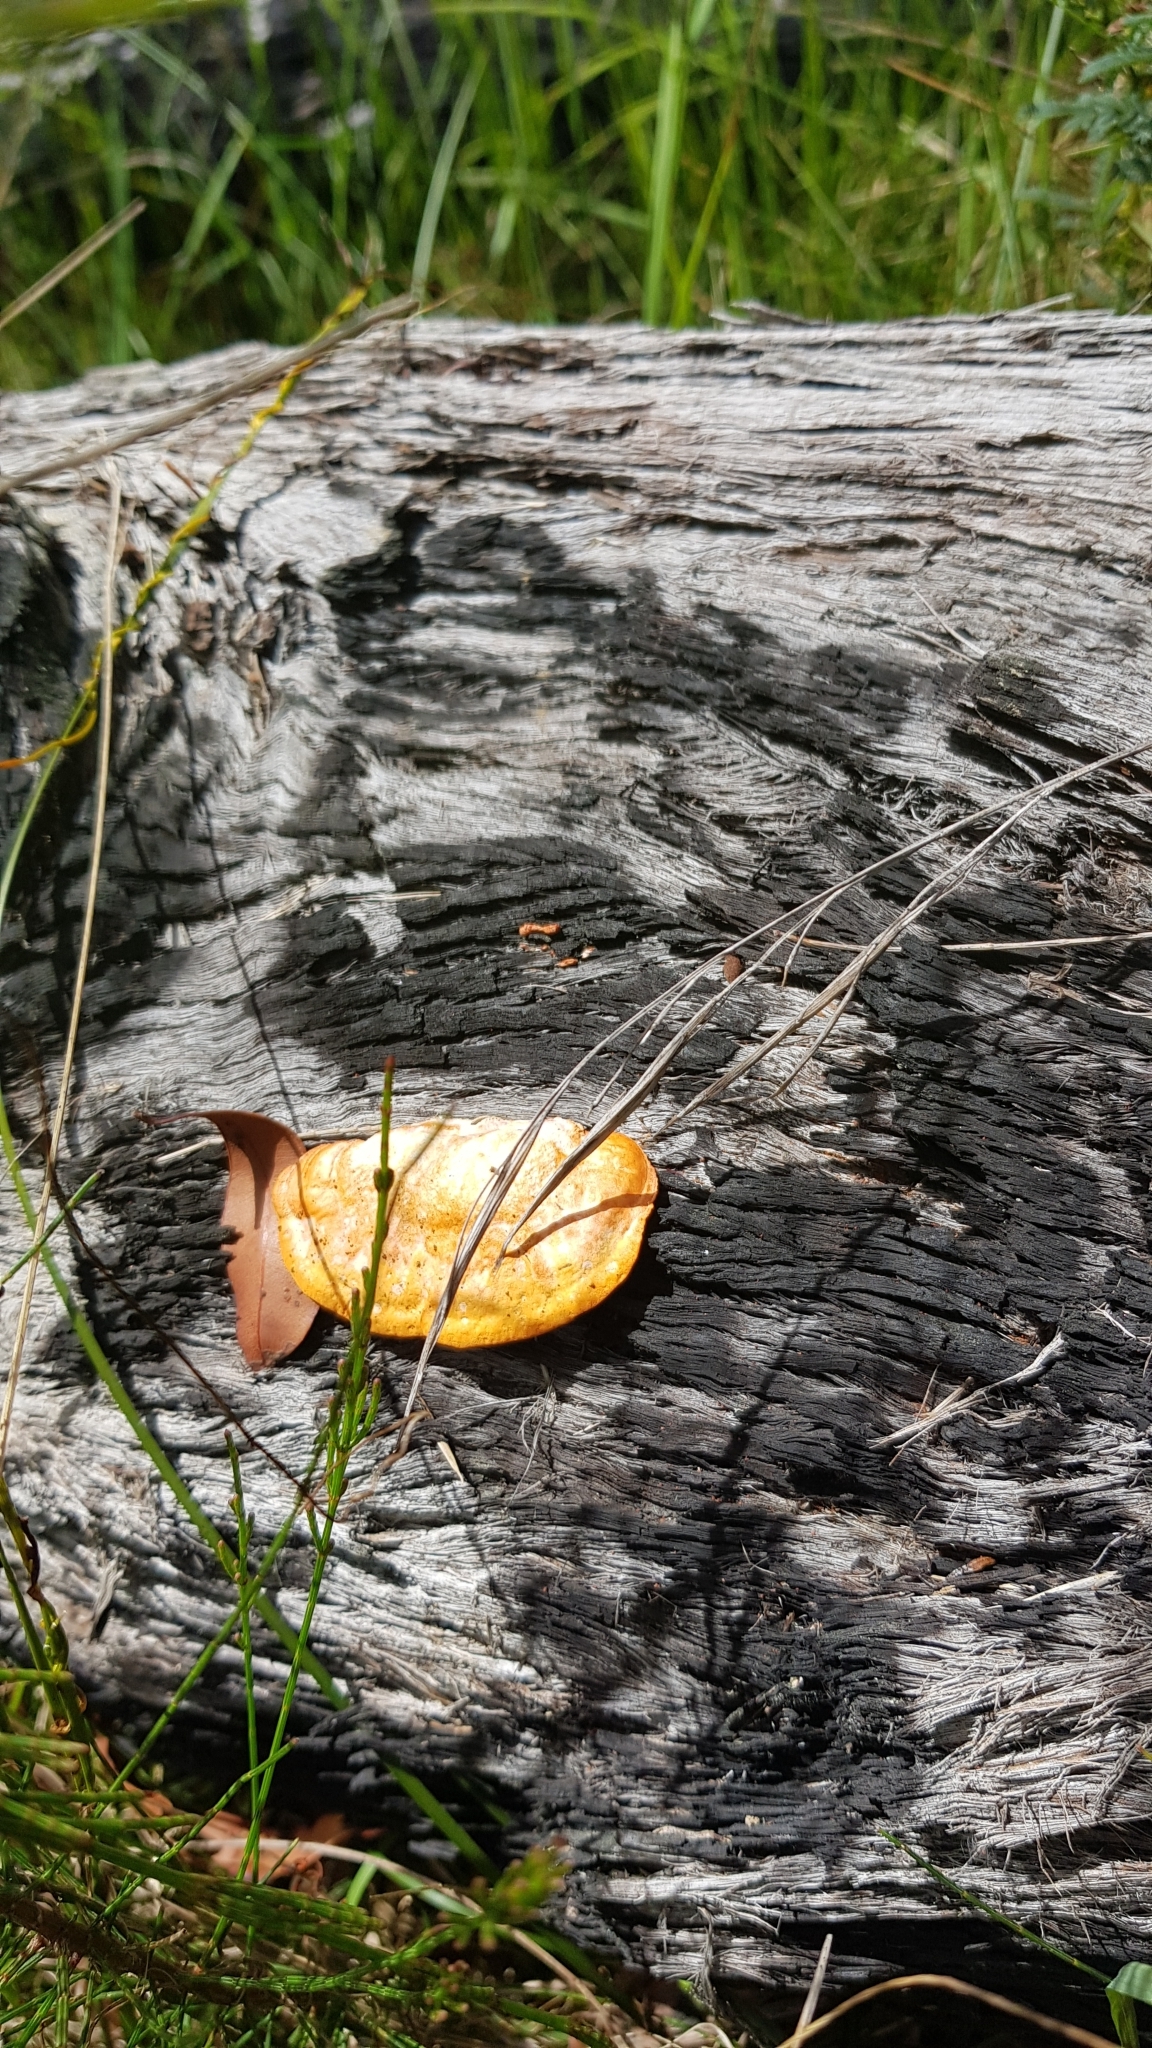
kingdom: Fungi
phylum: Basidiomycota
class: Agaricomycetes
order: Polyporales
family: Polyporaceae
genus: Trametes
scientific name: Trametes coccinea
